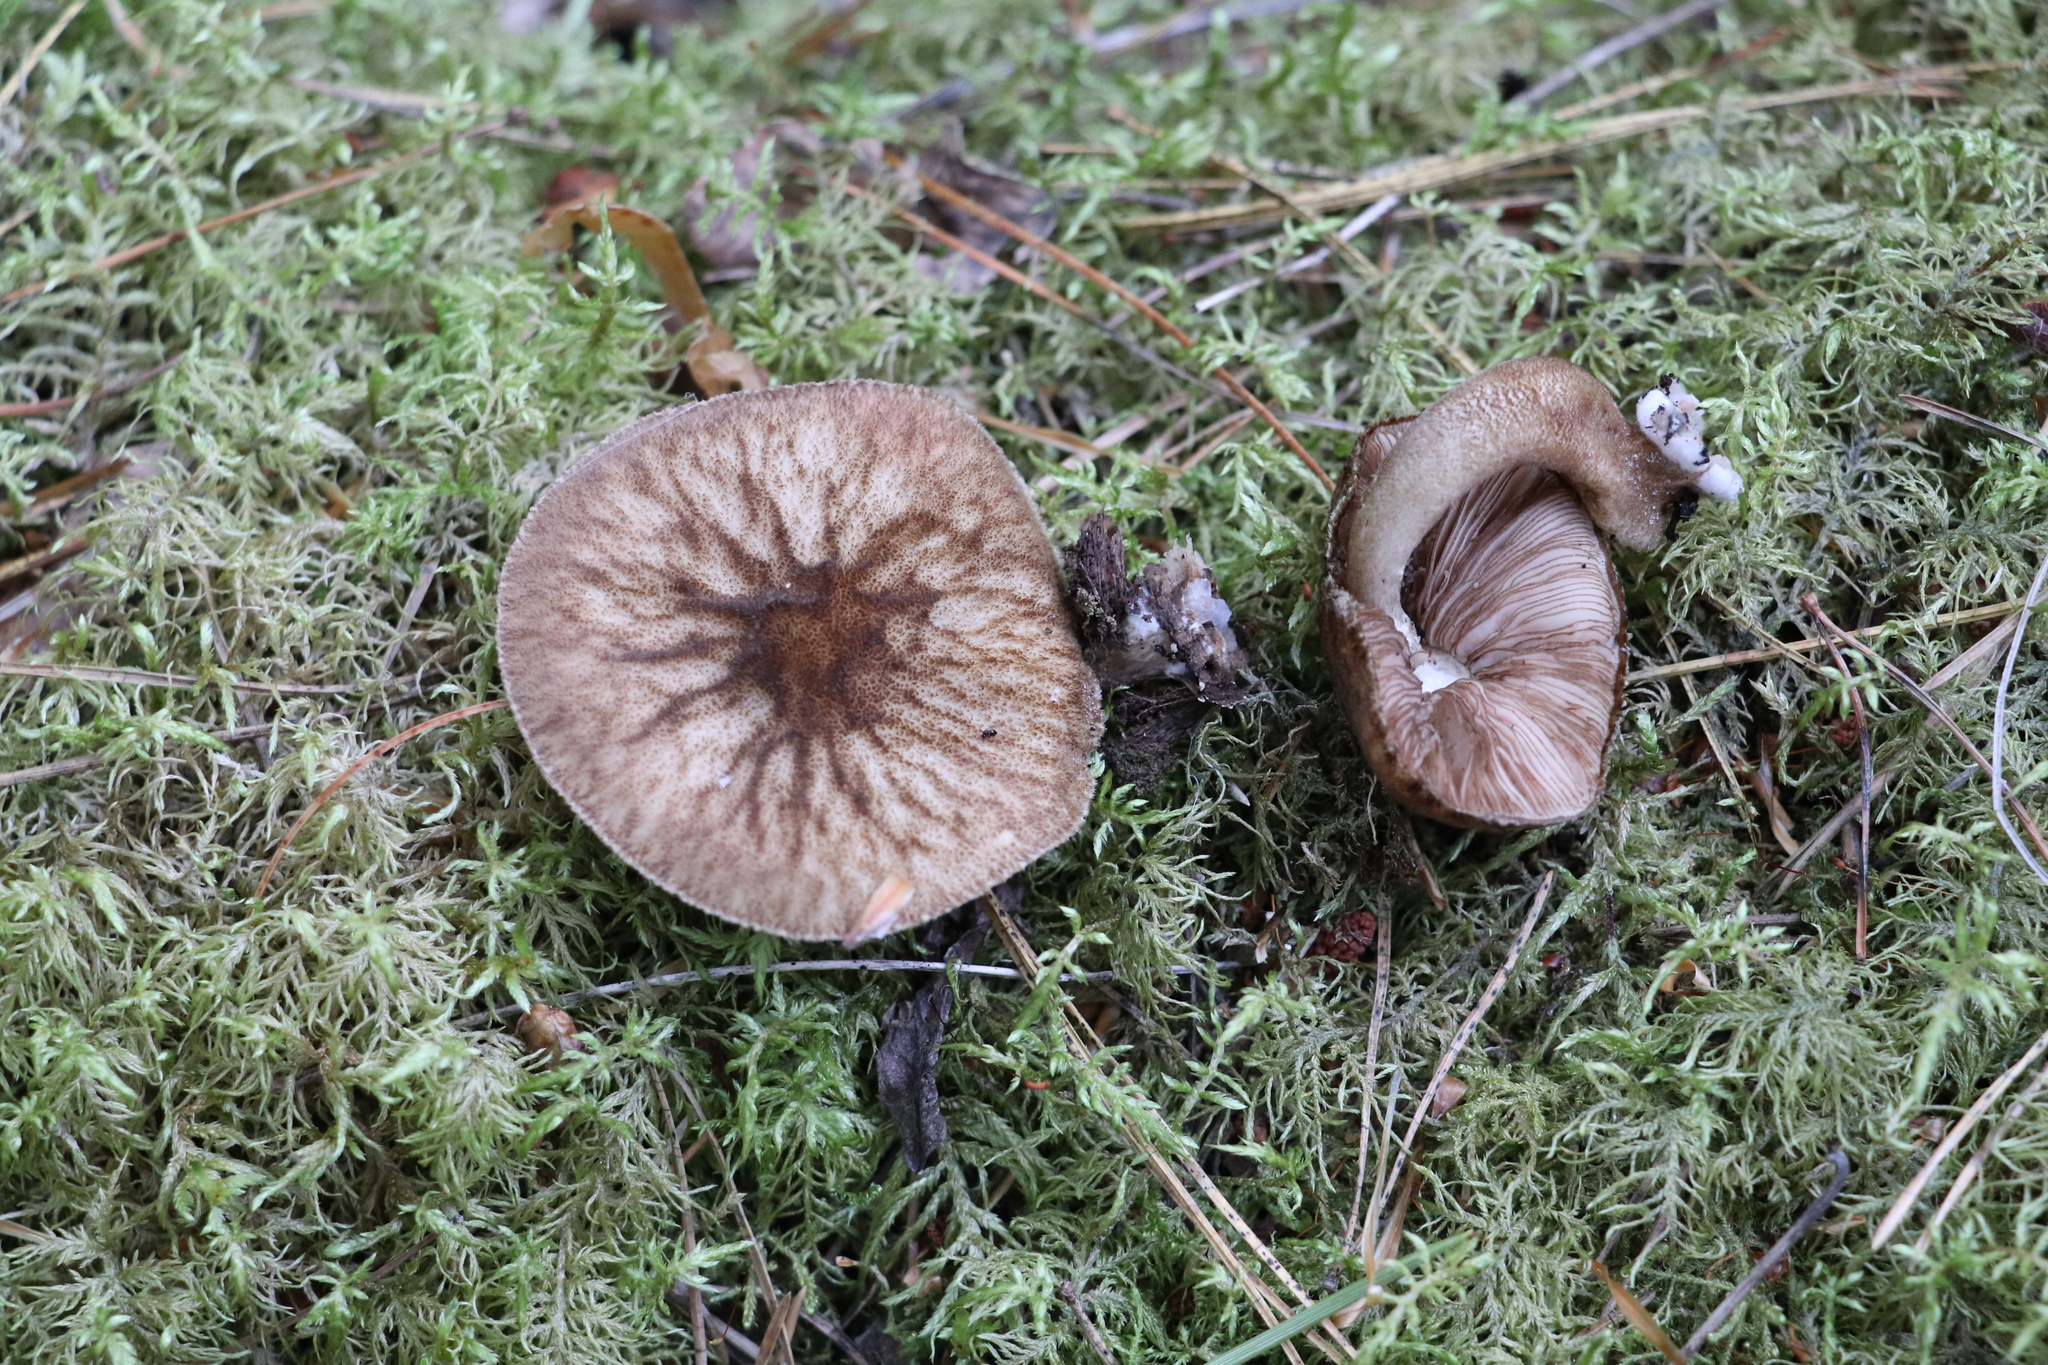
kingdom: Fungi
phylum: Basidiomycota
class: Agaricomycetes
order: Agaricales
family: Pluteaceae
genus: Pluteus
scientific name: Pluteus umbrosus
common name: Velvet shield
